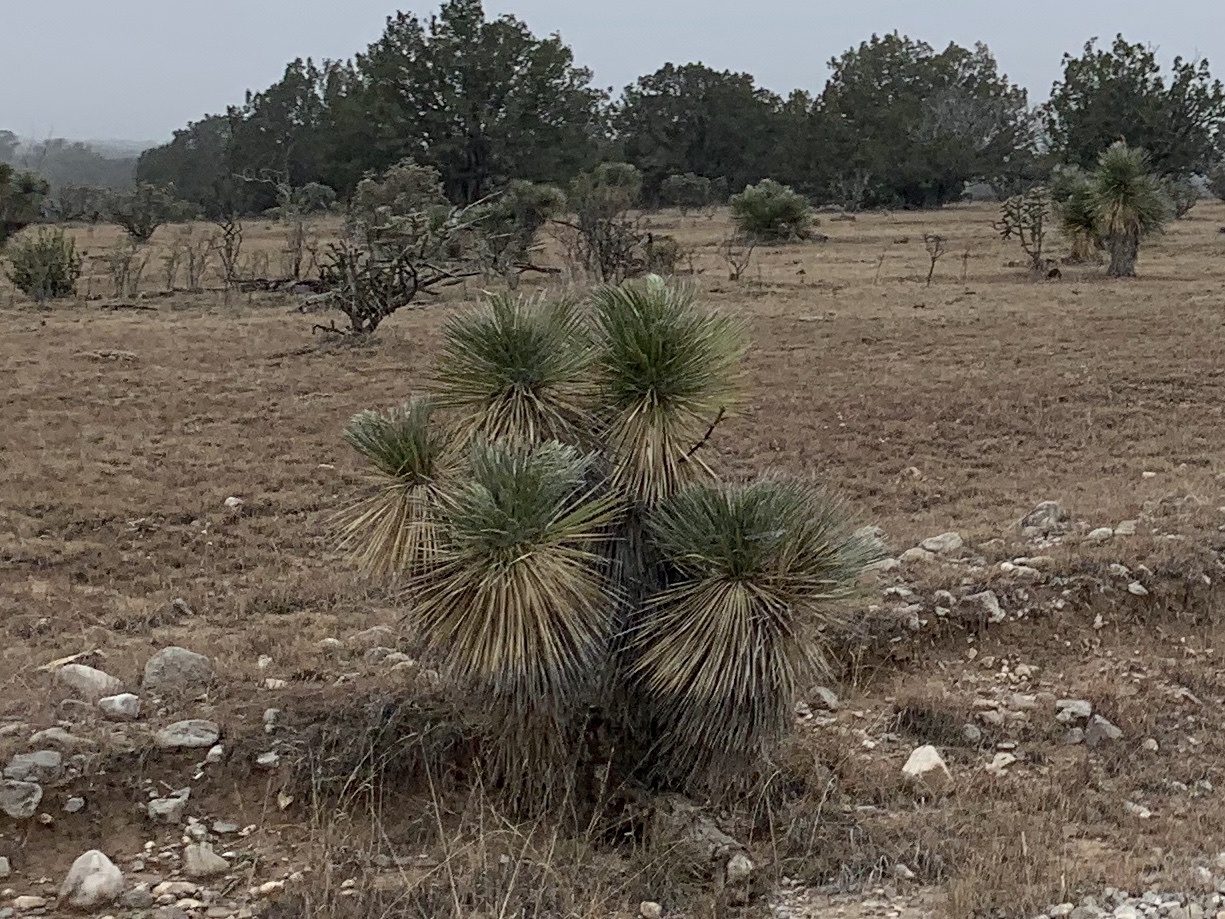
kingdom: Plantae
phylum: Tracheophyta
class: Liliopsida
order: Asparagales
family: Asparagaceae
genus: Yucca
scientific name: Yucca elata
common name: Palmella
